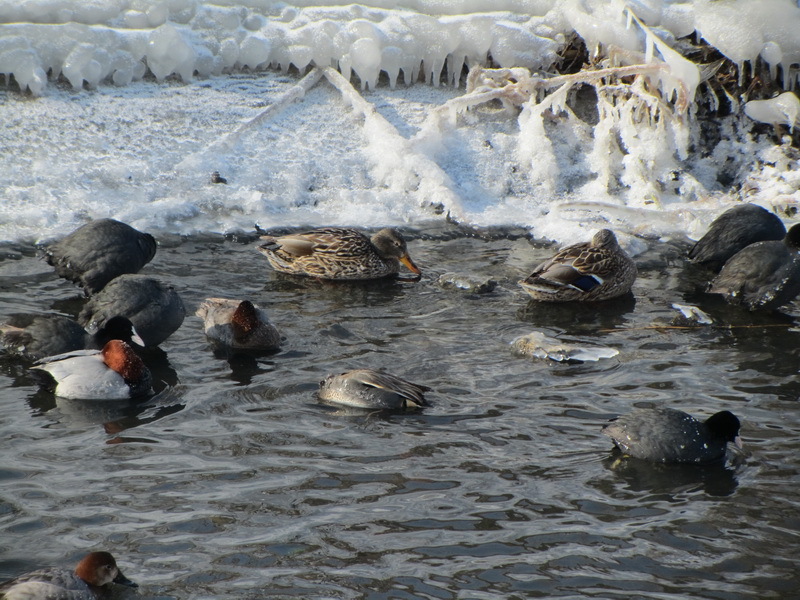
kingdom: Animalia
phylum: Chordata
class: Aves
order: Anseriformes
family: Anatidae
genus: Anas
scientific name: Anas platyrhynchos
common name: Mallard
